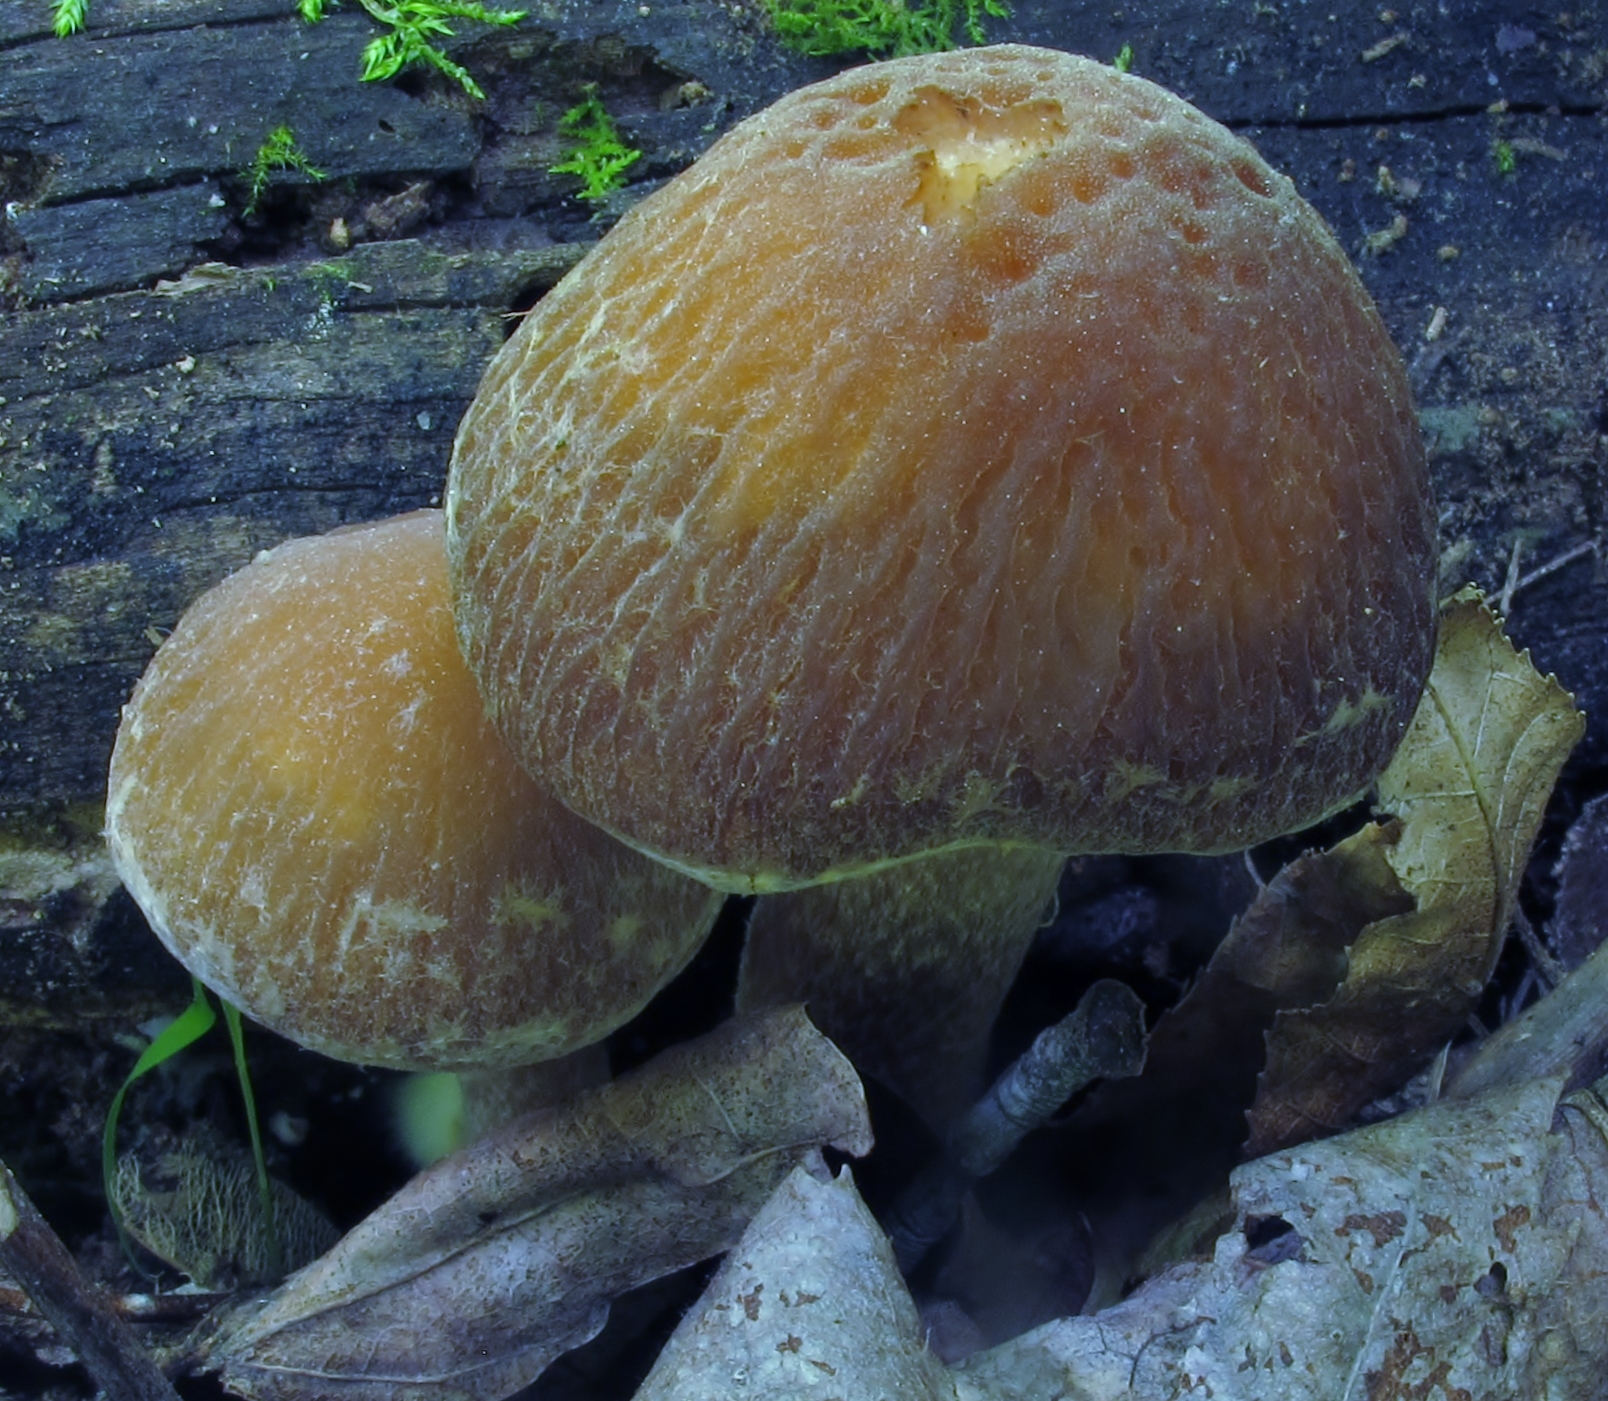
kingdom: Fungi
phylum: Basidiomycota
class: Agaricomycetes
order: Agaricales
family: Psathyrellaceae
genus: Typhrasa
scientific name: Typhrasa gossypina
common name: Wrinkled psathyrella
